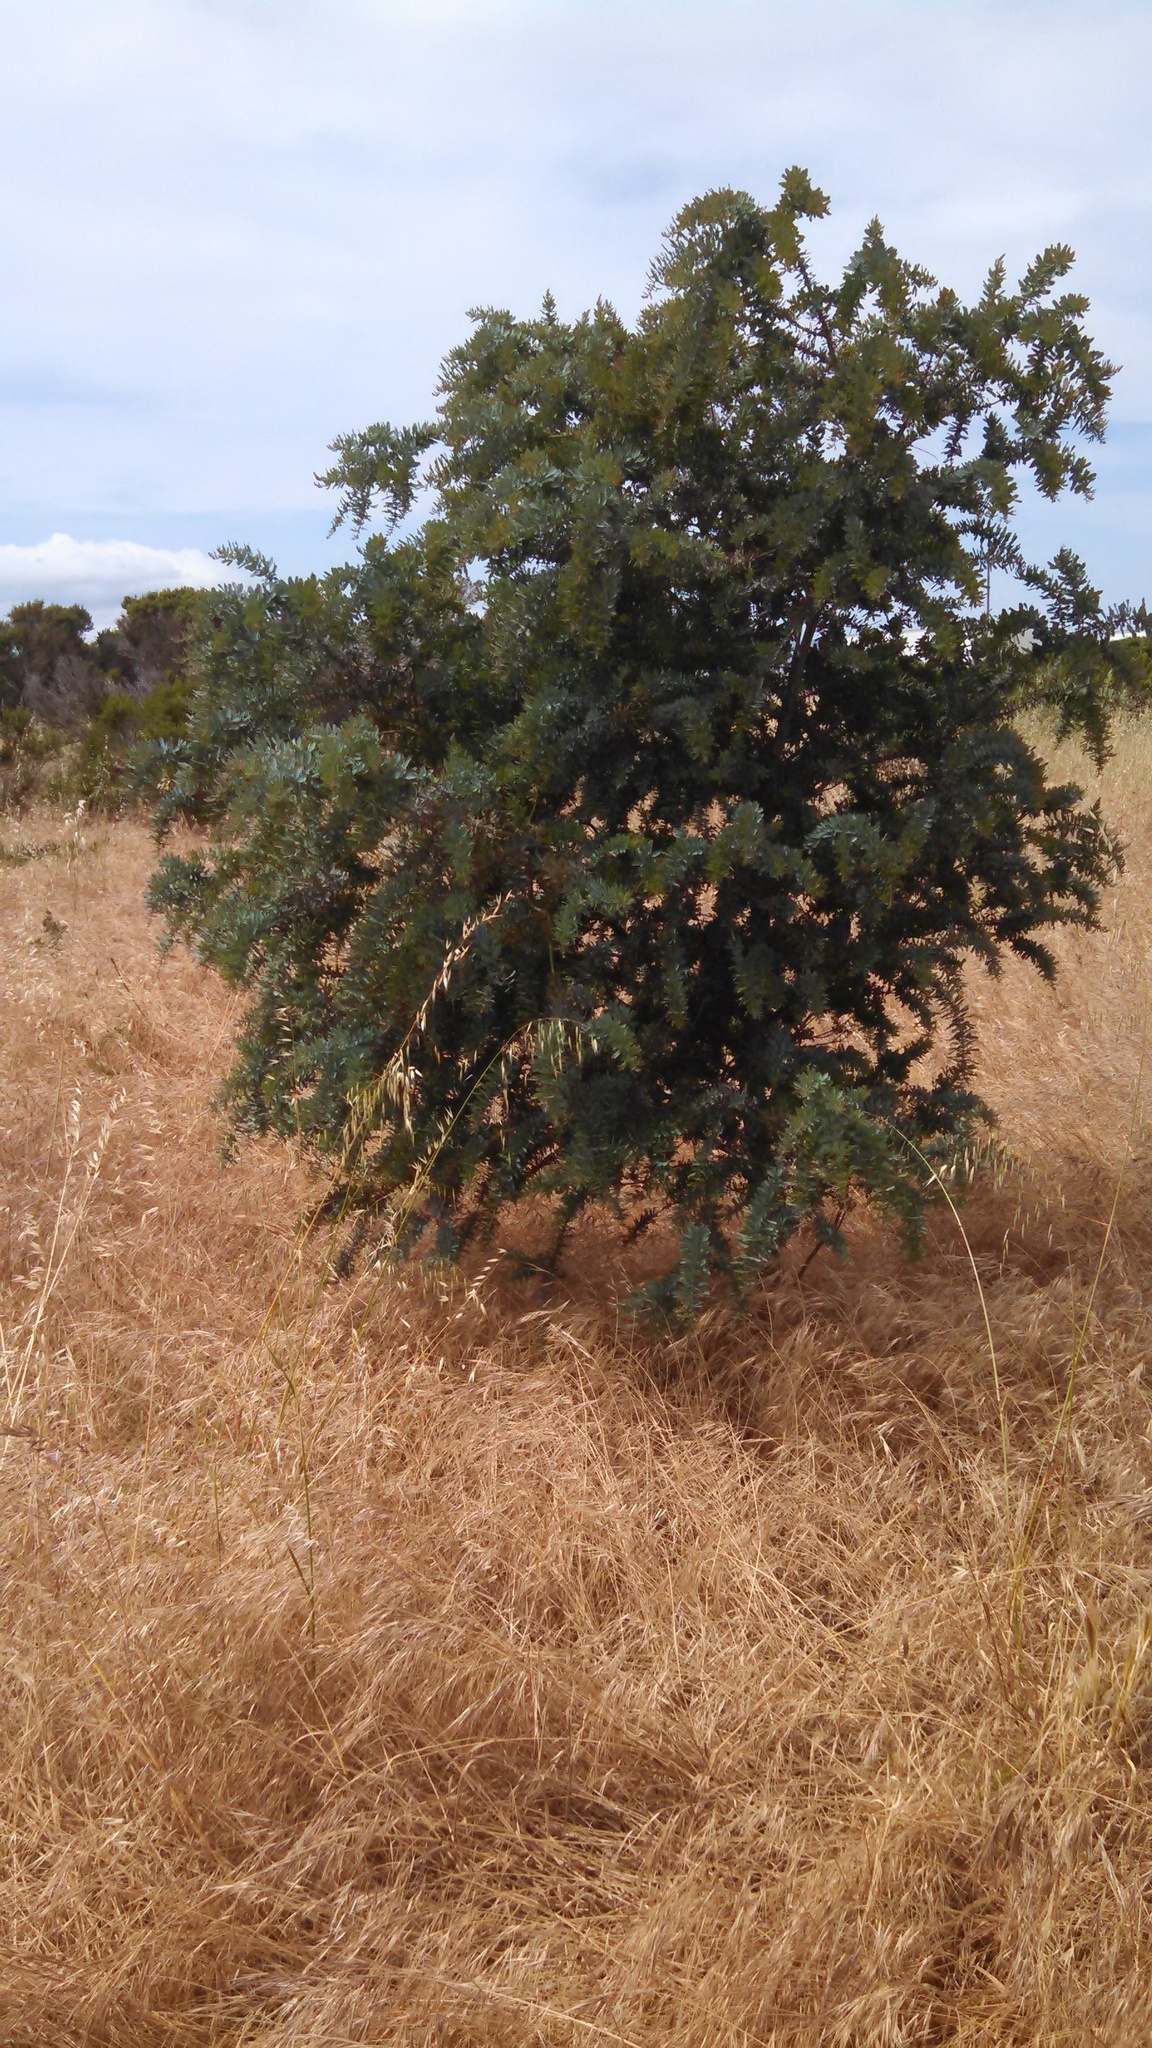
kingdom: Plantae
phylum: Tracheophyta
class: Magnoliopsida
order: Fabales
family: Fabaceae
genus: Acacia
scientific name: Acacia baileyana
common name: Cootamundra wattle
